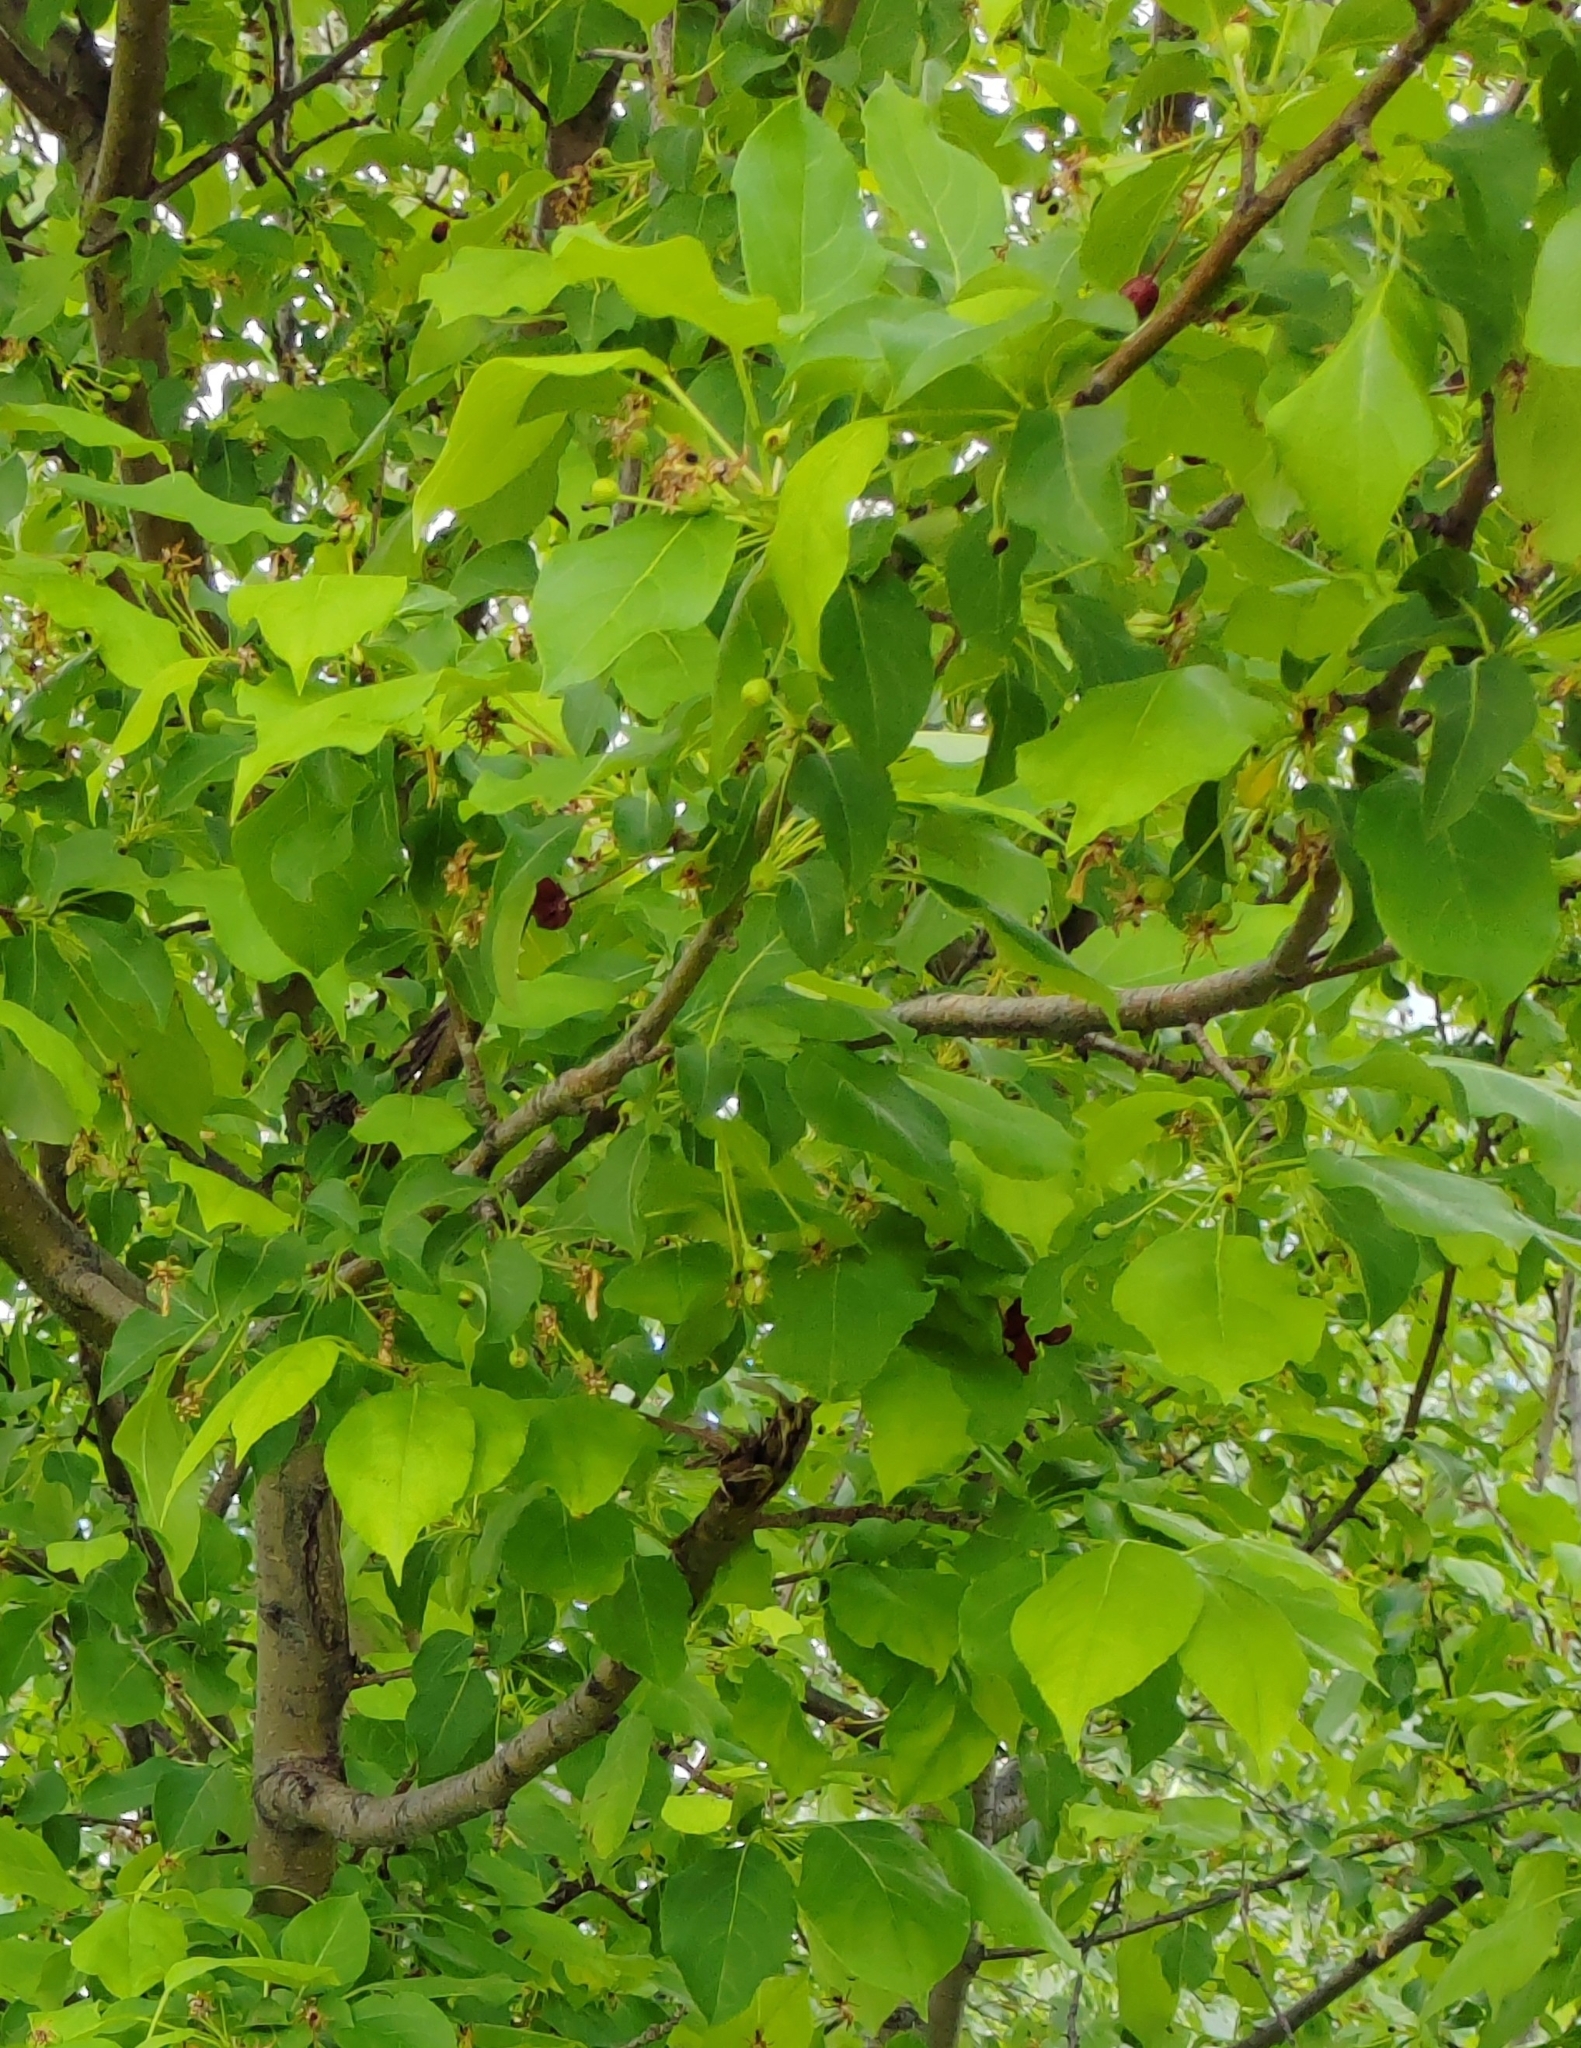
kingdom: Plantae
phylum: Tracheophyta
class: Magnoliopsida
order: Rosales
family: Rosaceae
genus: Malus
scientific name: Malus baccata
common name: Siberian crab
